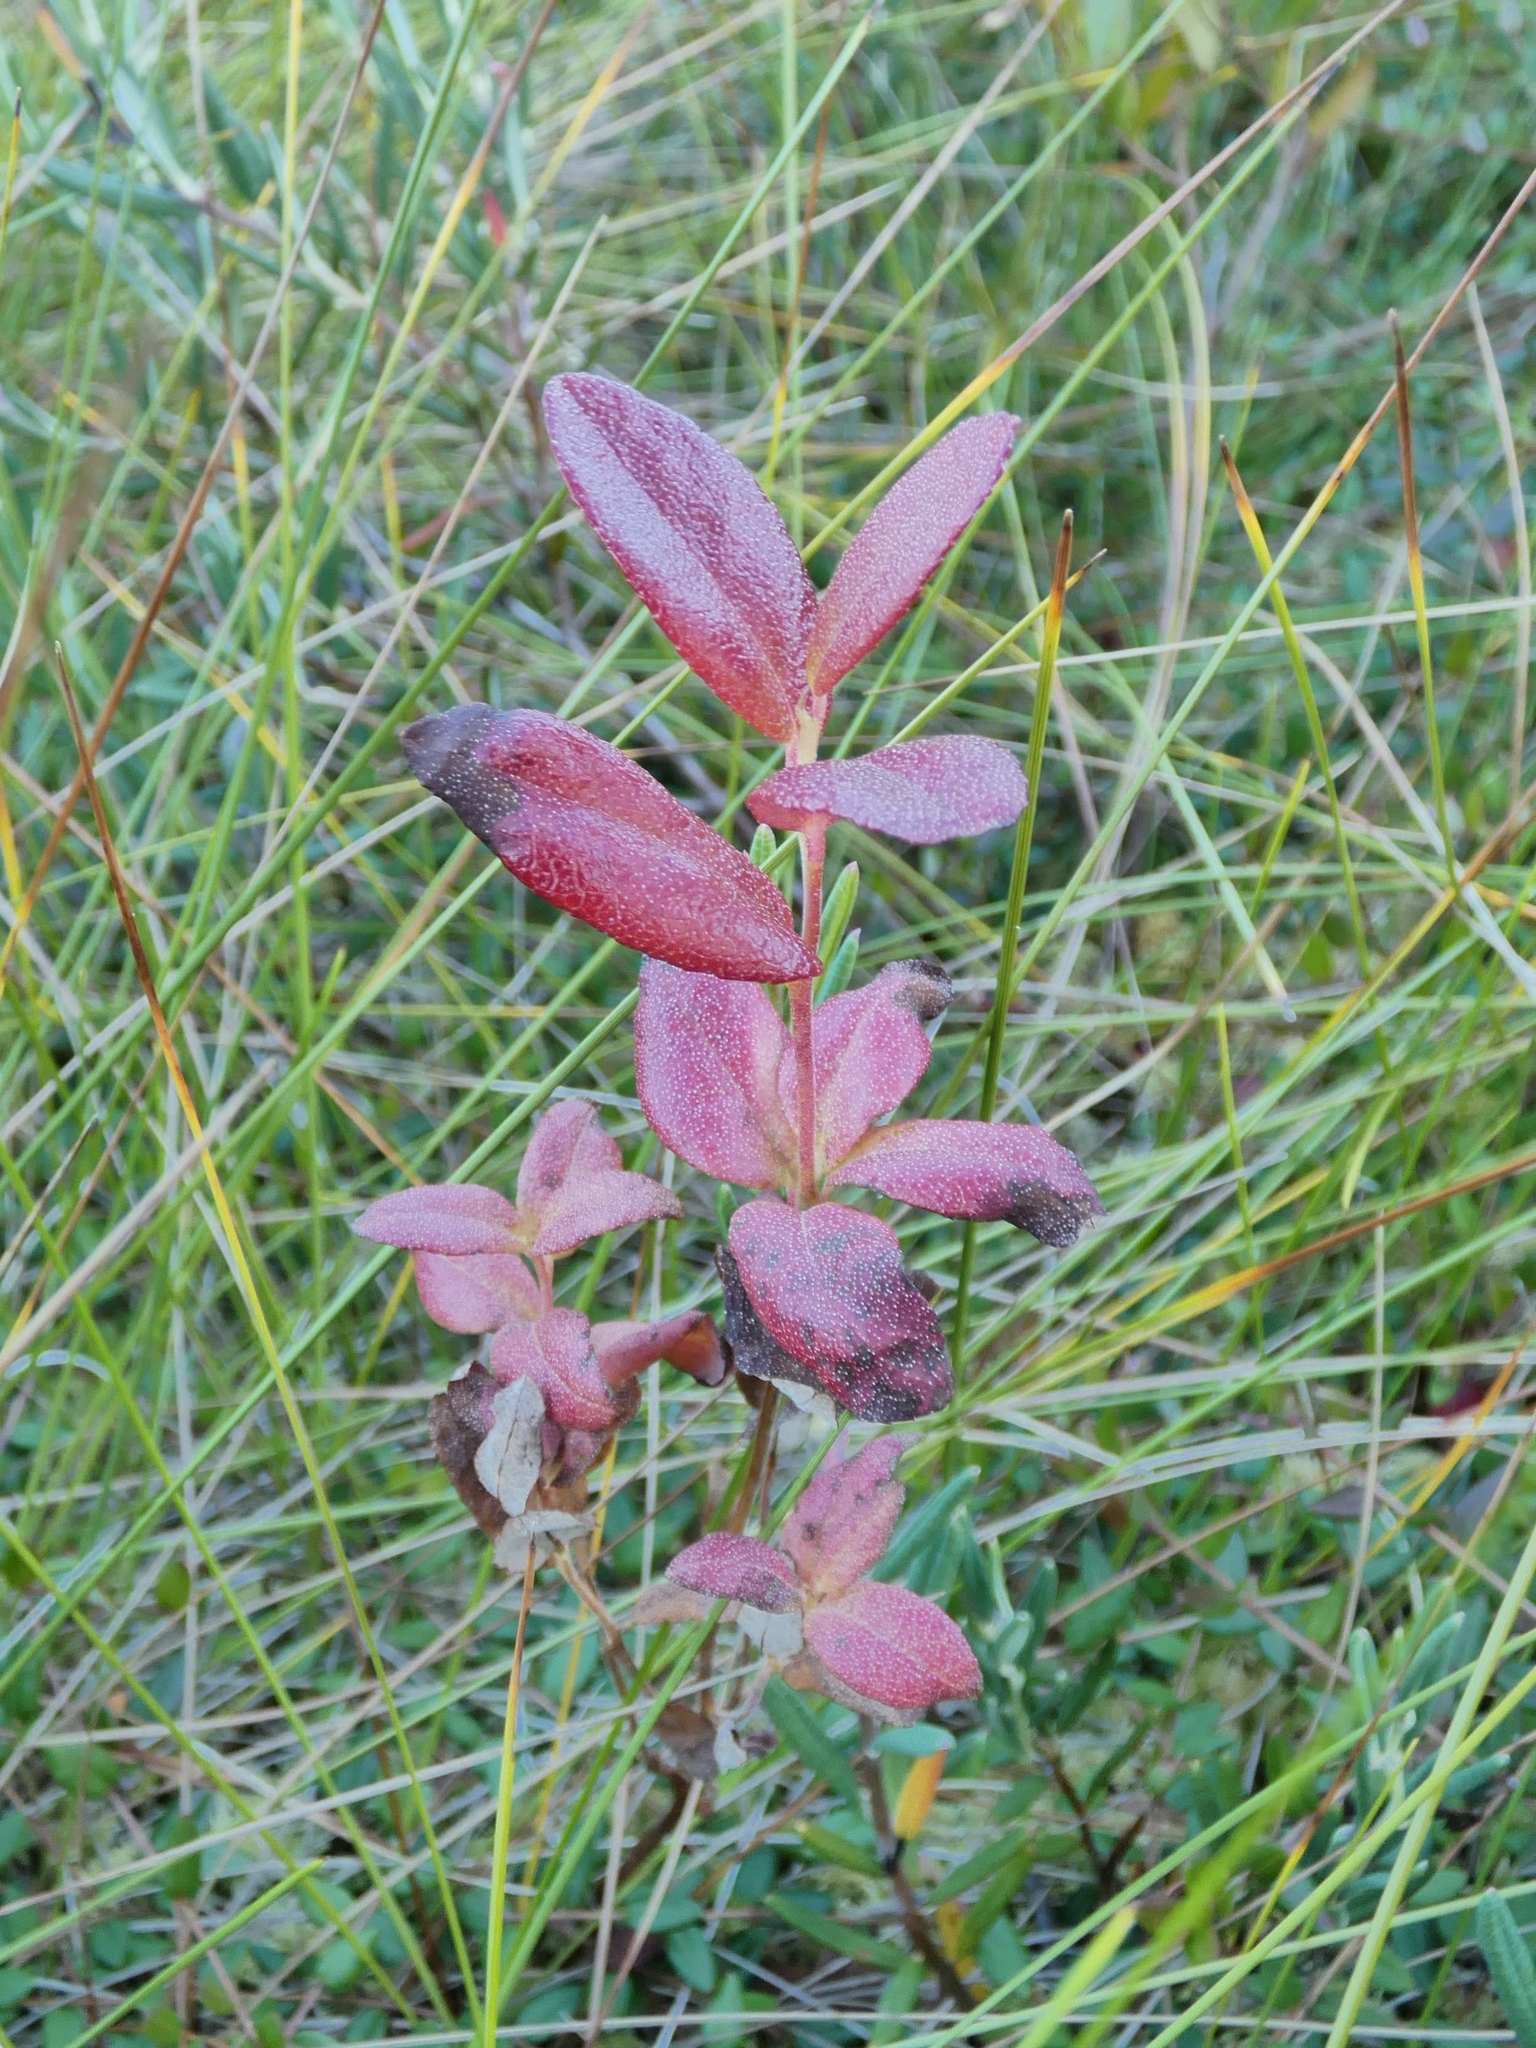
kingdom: Plantae
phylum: Tracheophyta
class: Magnoliopsida
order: Ericales
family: Ericaceae
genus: Chamaedaphne
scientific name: Chamaedaphne calyculata
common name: Leatherleaf
